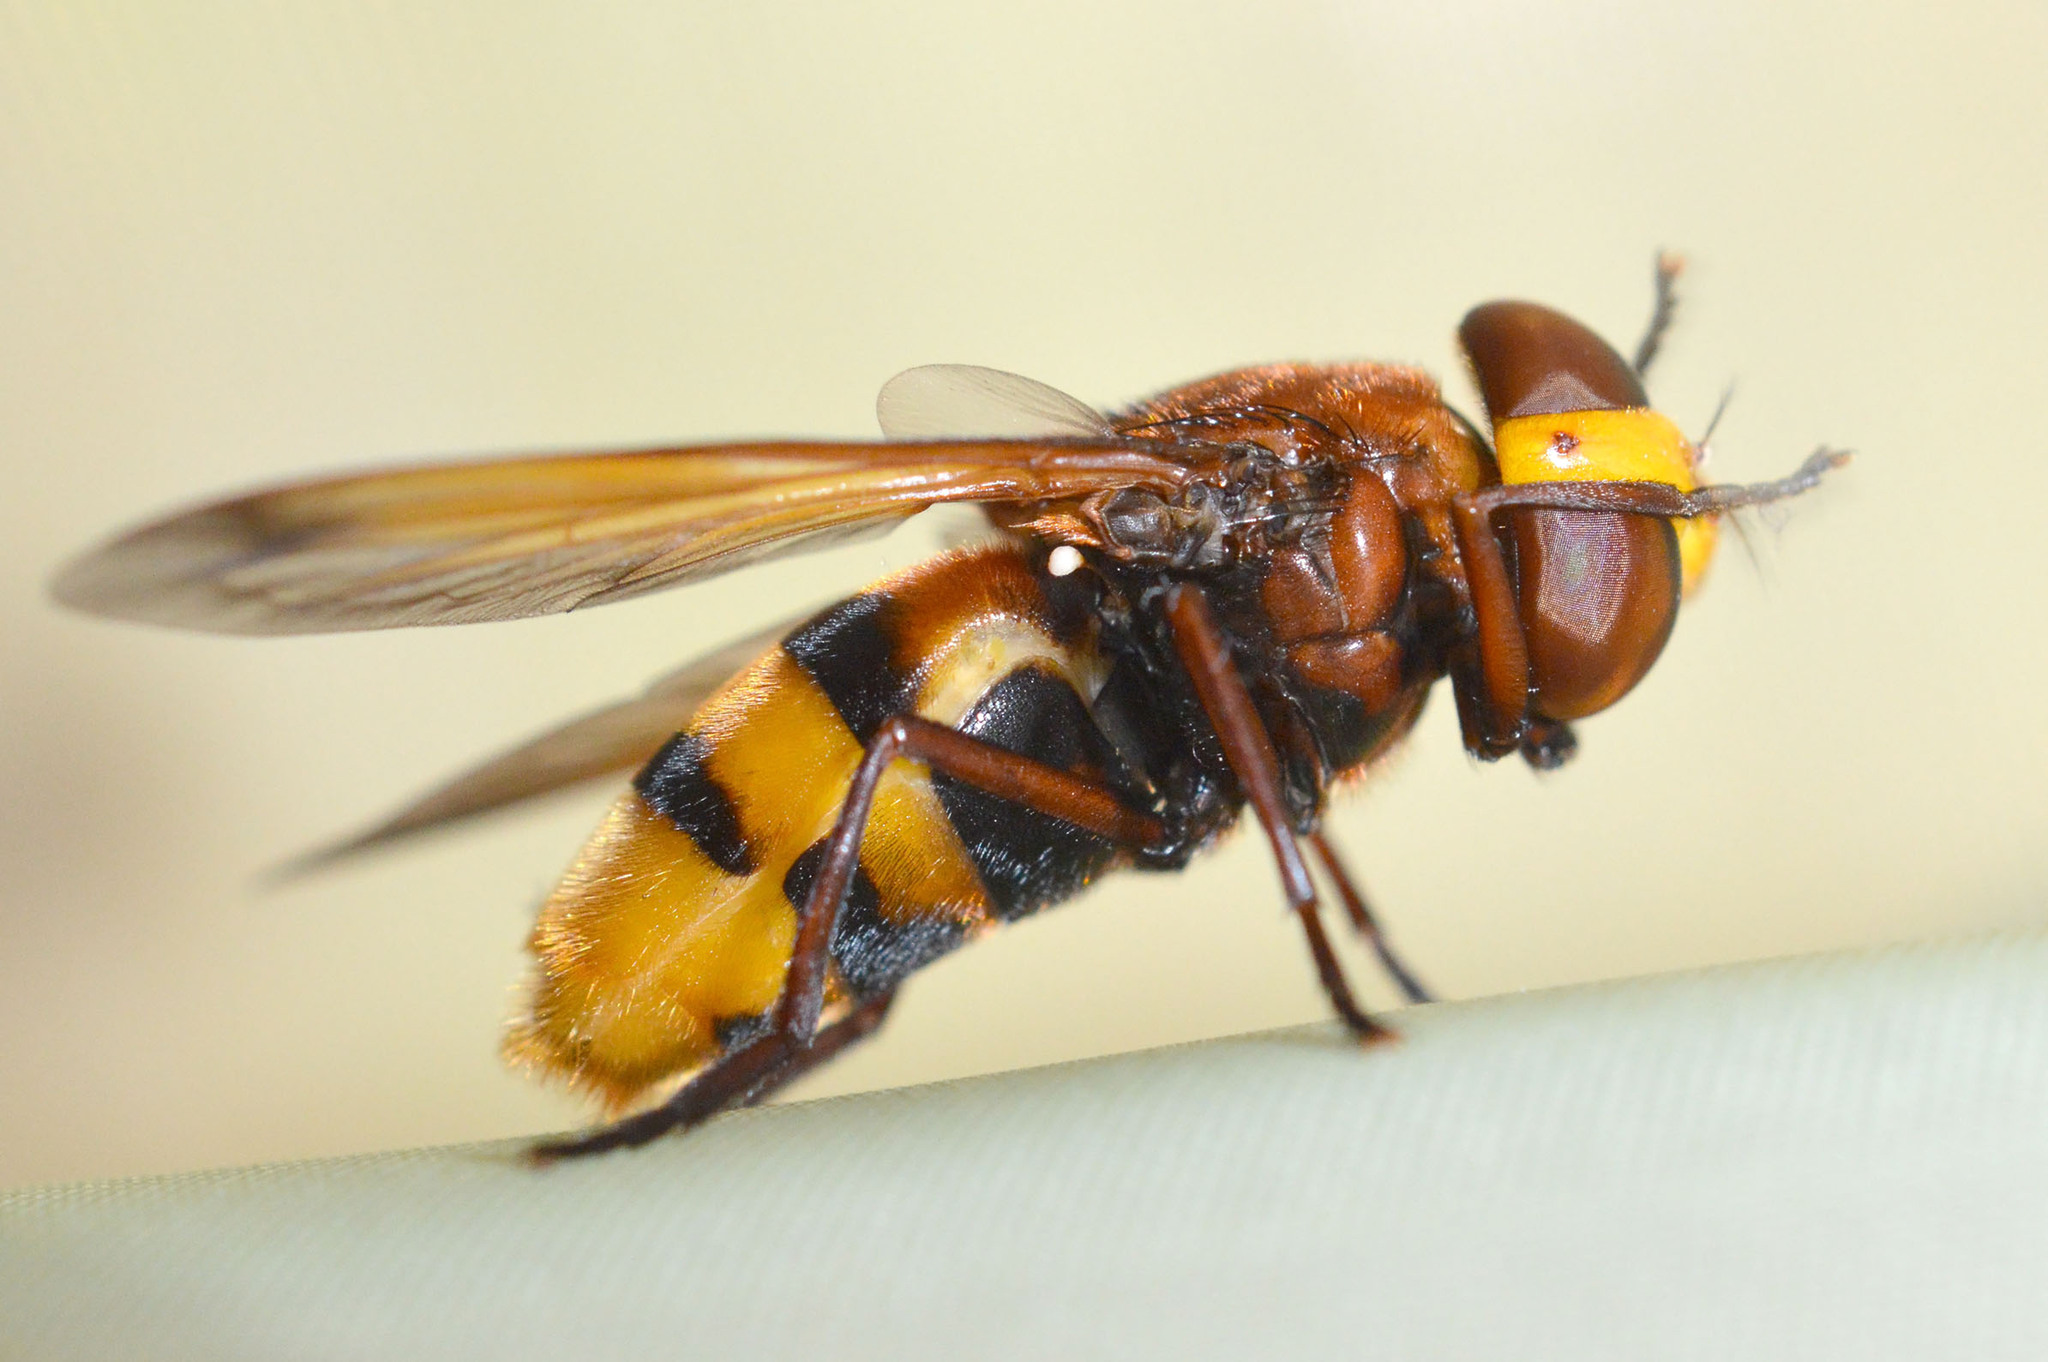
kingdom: Animalia
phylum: Arthropoda
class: Insecta
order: Diptera
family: Syrphidae
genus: Volucella
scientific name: Volucella zonaria
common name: Hornet hoverfly
